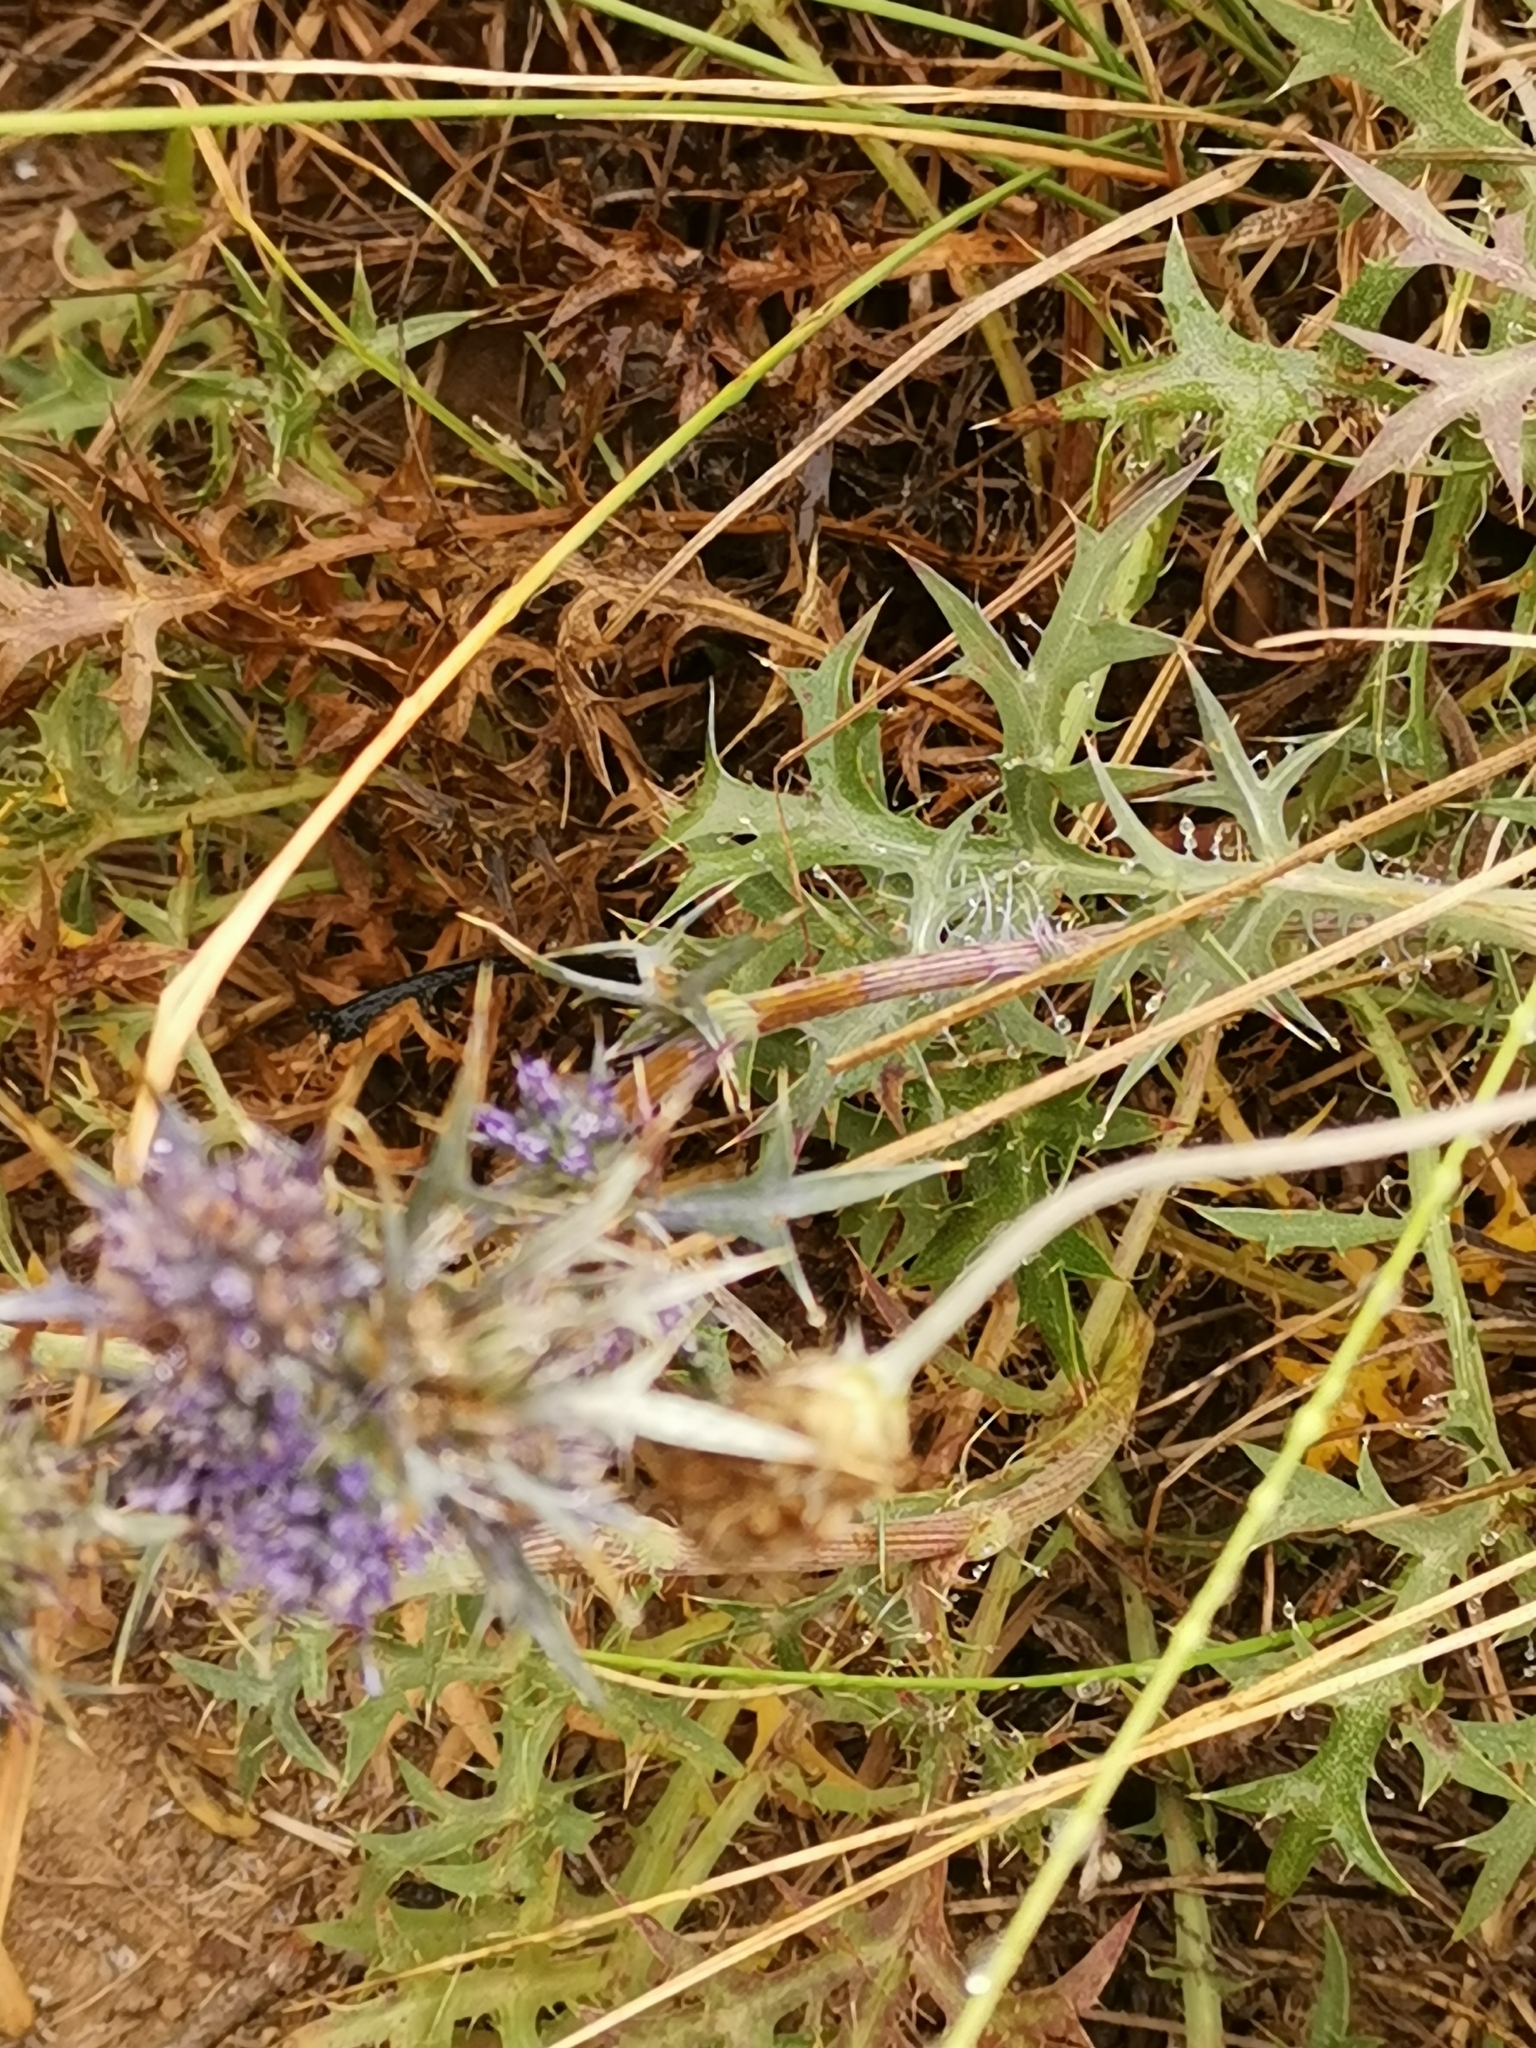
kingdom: Plantae
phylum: Tracheophyta
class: Magnoliopsida
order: Apiales
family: Apiaceae
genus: Eryngium
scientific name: Eryngium dilatatum
